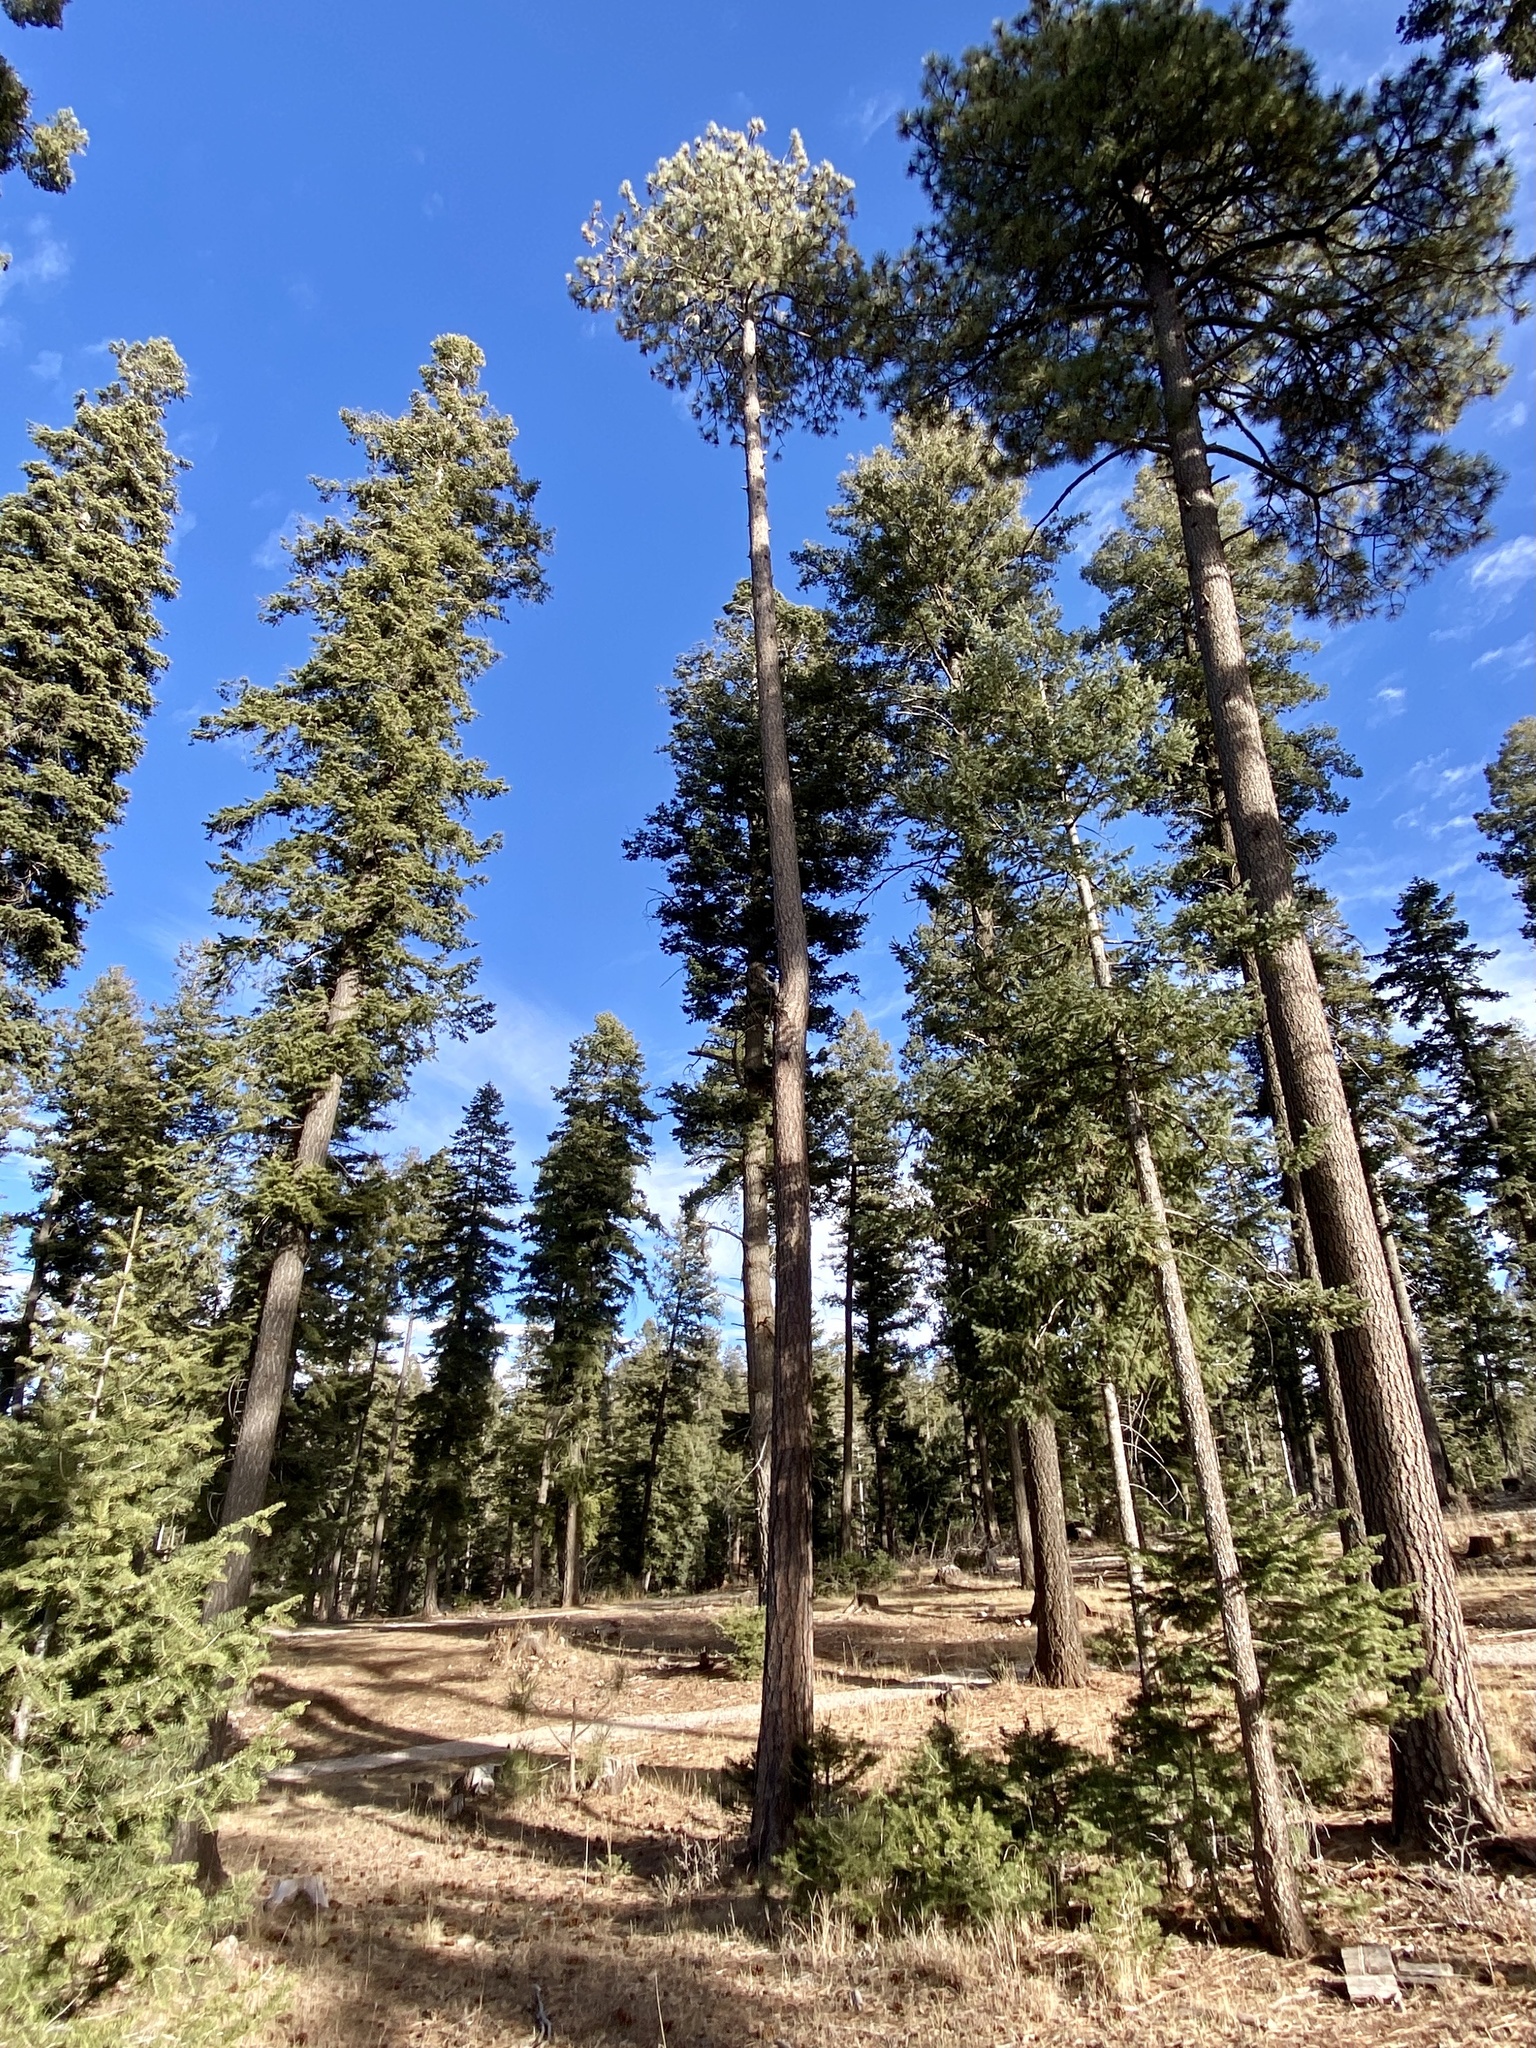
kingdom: Plantae
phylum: Tracheophyta
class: Pinopsida
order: Pinales
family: Pinaceae
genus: Pinus
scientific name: Pinus ponderosa
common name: Western yellow-pine
